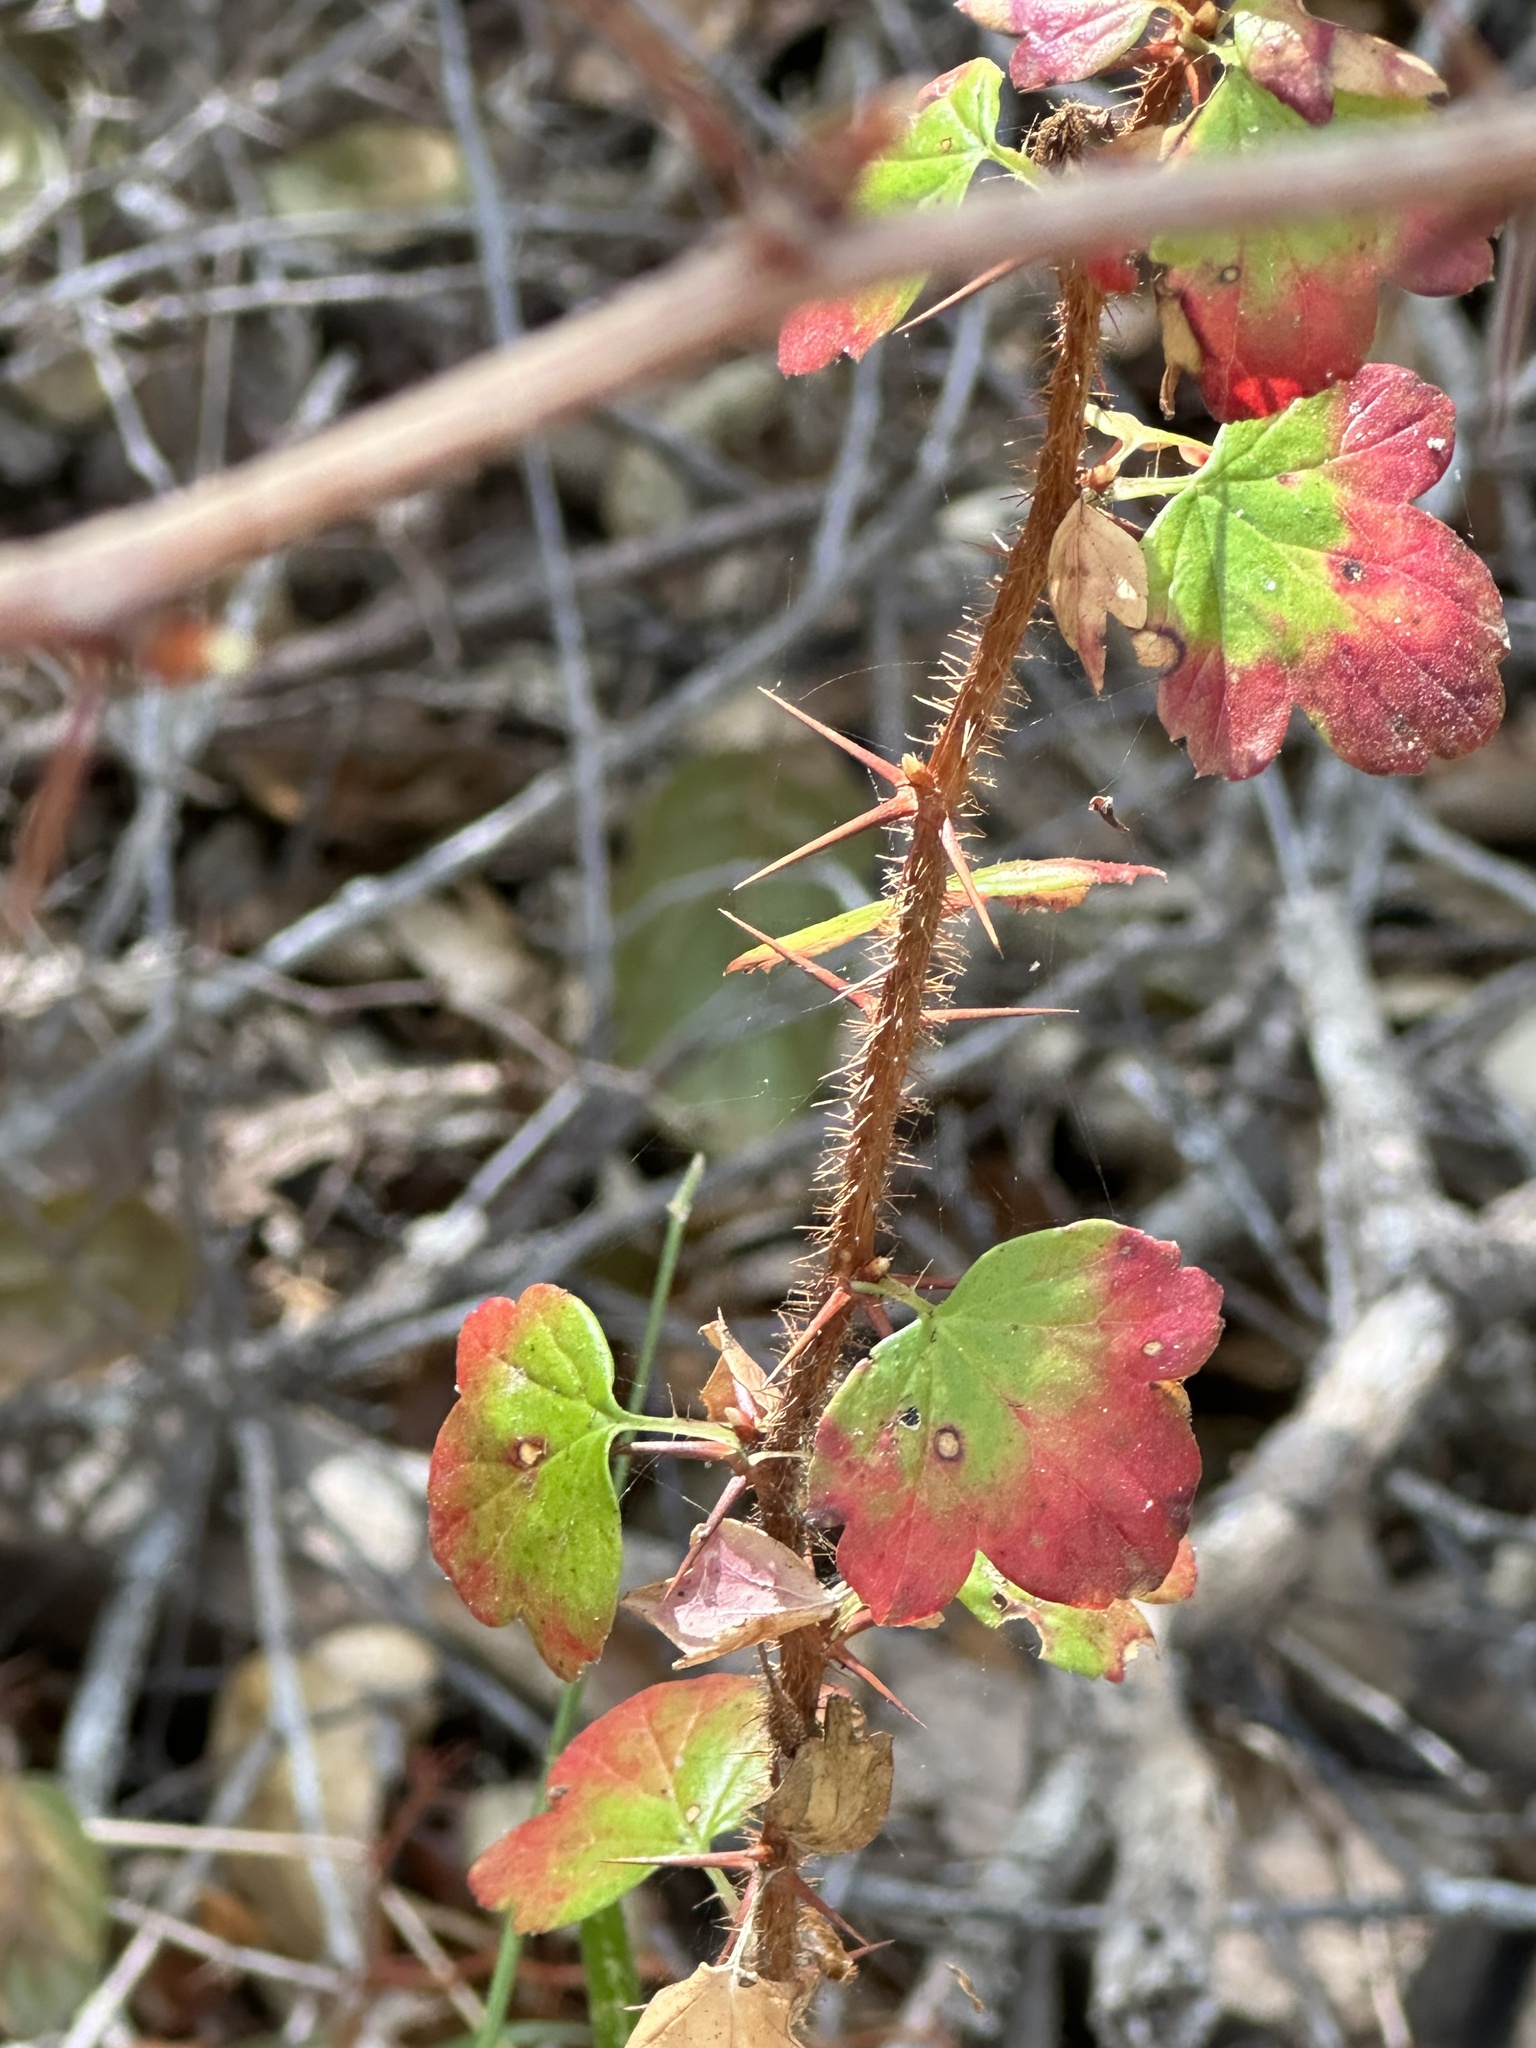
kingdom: Plantae
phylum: Tracheophyta
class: Magnoliopsida
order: Saxifragales
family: Grossulariaceae
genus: Ribes
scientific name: Ribes speciosum
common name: Fuchsia-flower gooseberry
